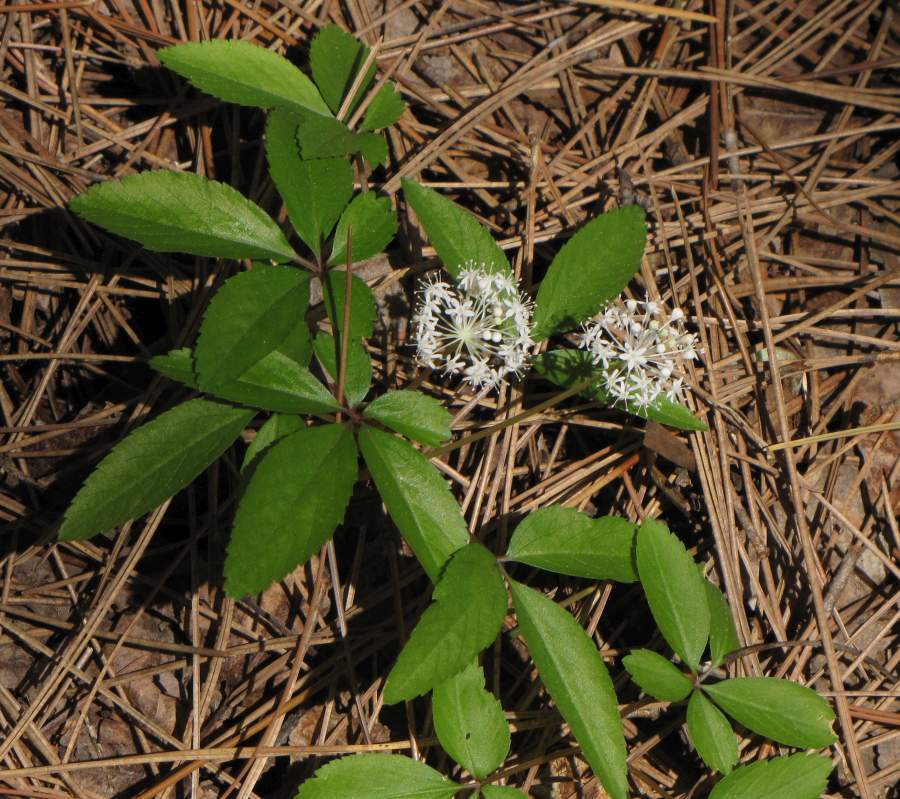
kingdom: Plantae
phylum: Tracheophyta
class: Magnoliopsida
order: Apiales
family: Araliaceae
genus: Panax
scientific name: Panax trifolius
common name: Dwarf ginseng
